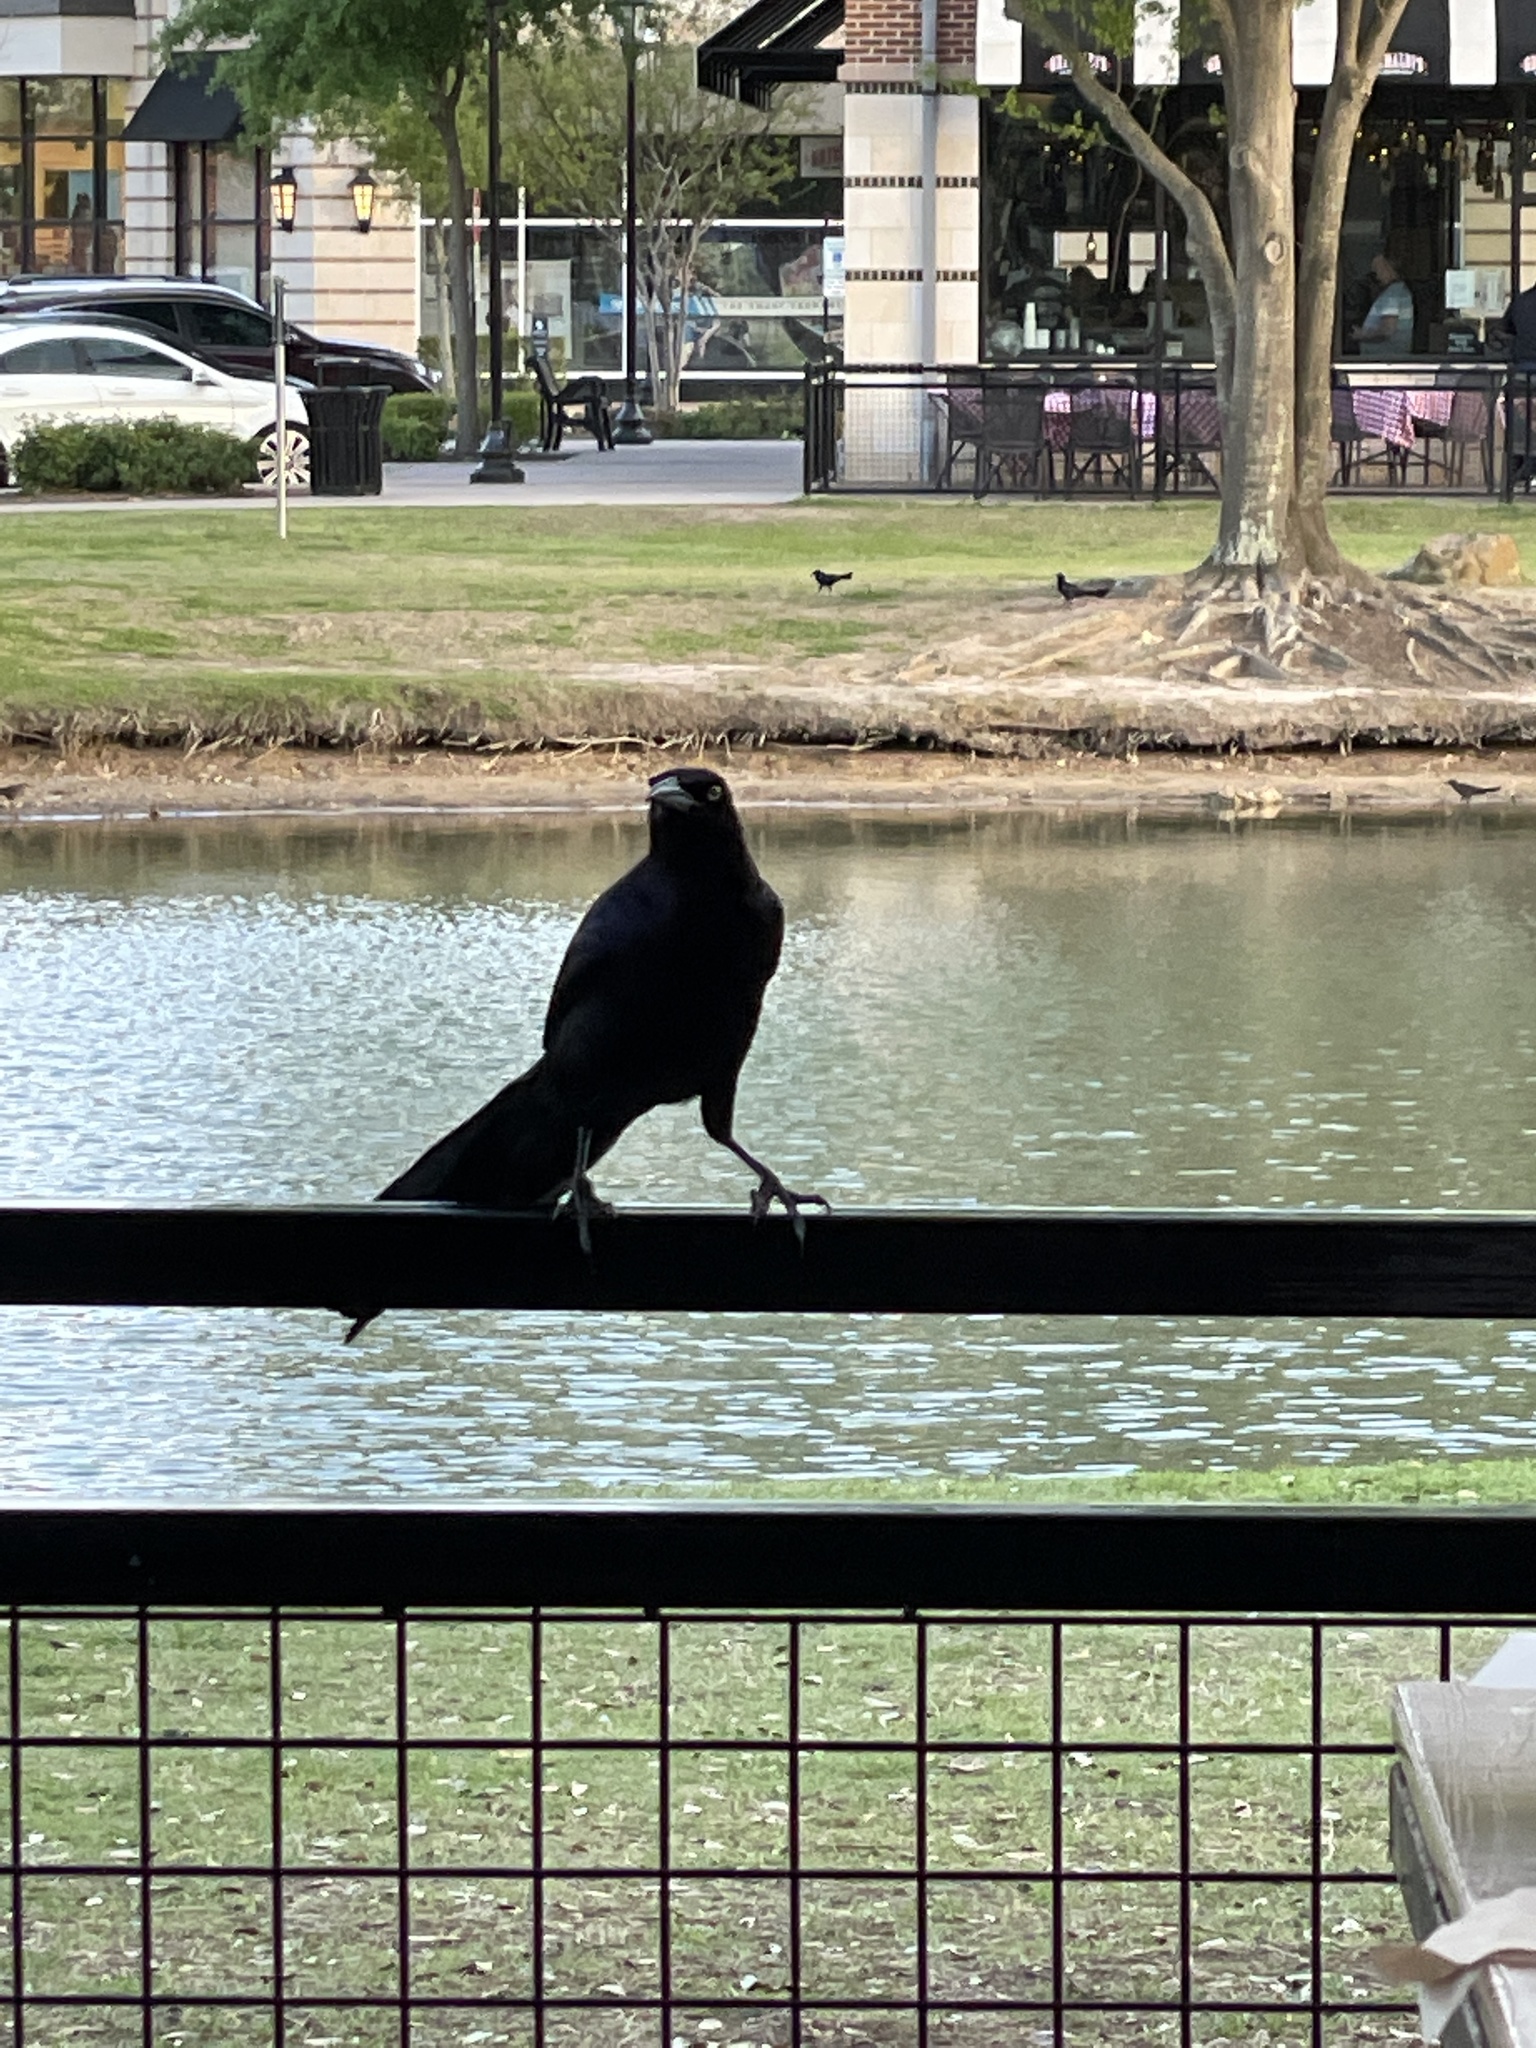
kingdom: Animalia
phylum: Chordata
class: Aves
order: Passeriformes
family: Icteridae
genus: Quiscalus
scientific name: Quiscalus mexicanus
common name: Great-tailed grackle
